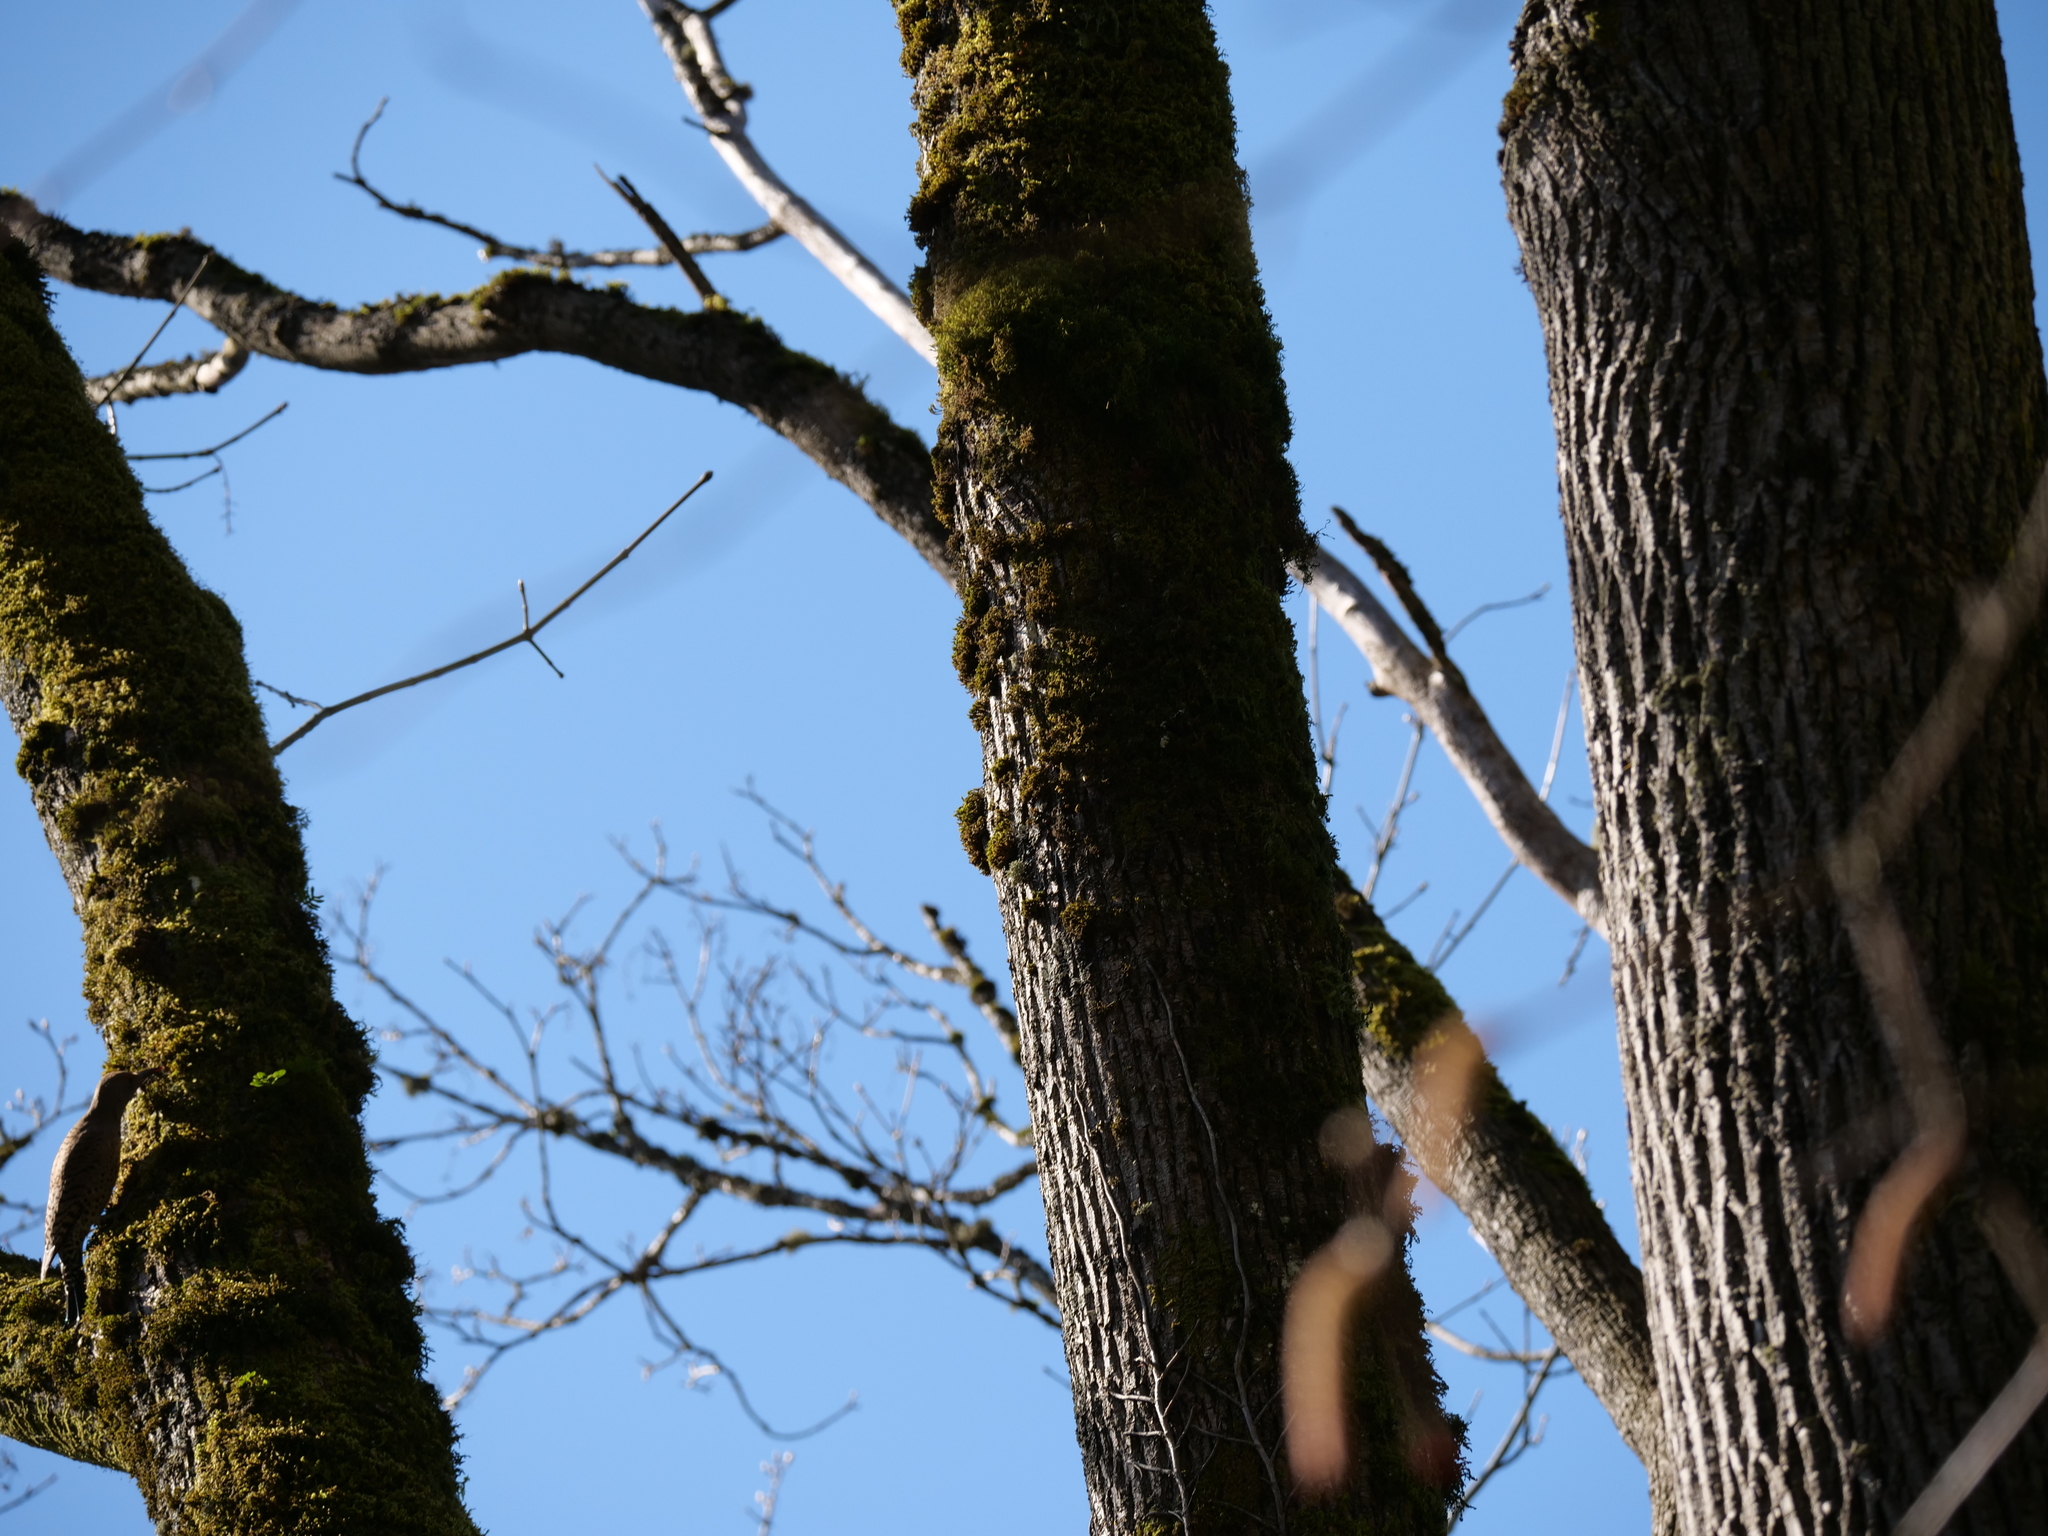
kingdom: Animalia
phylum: Chordata
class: Aves
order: Piciformes
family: Picidae
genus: Colaptes
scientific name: Colaptes auratus
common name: Northern flicker
